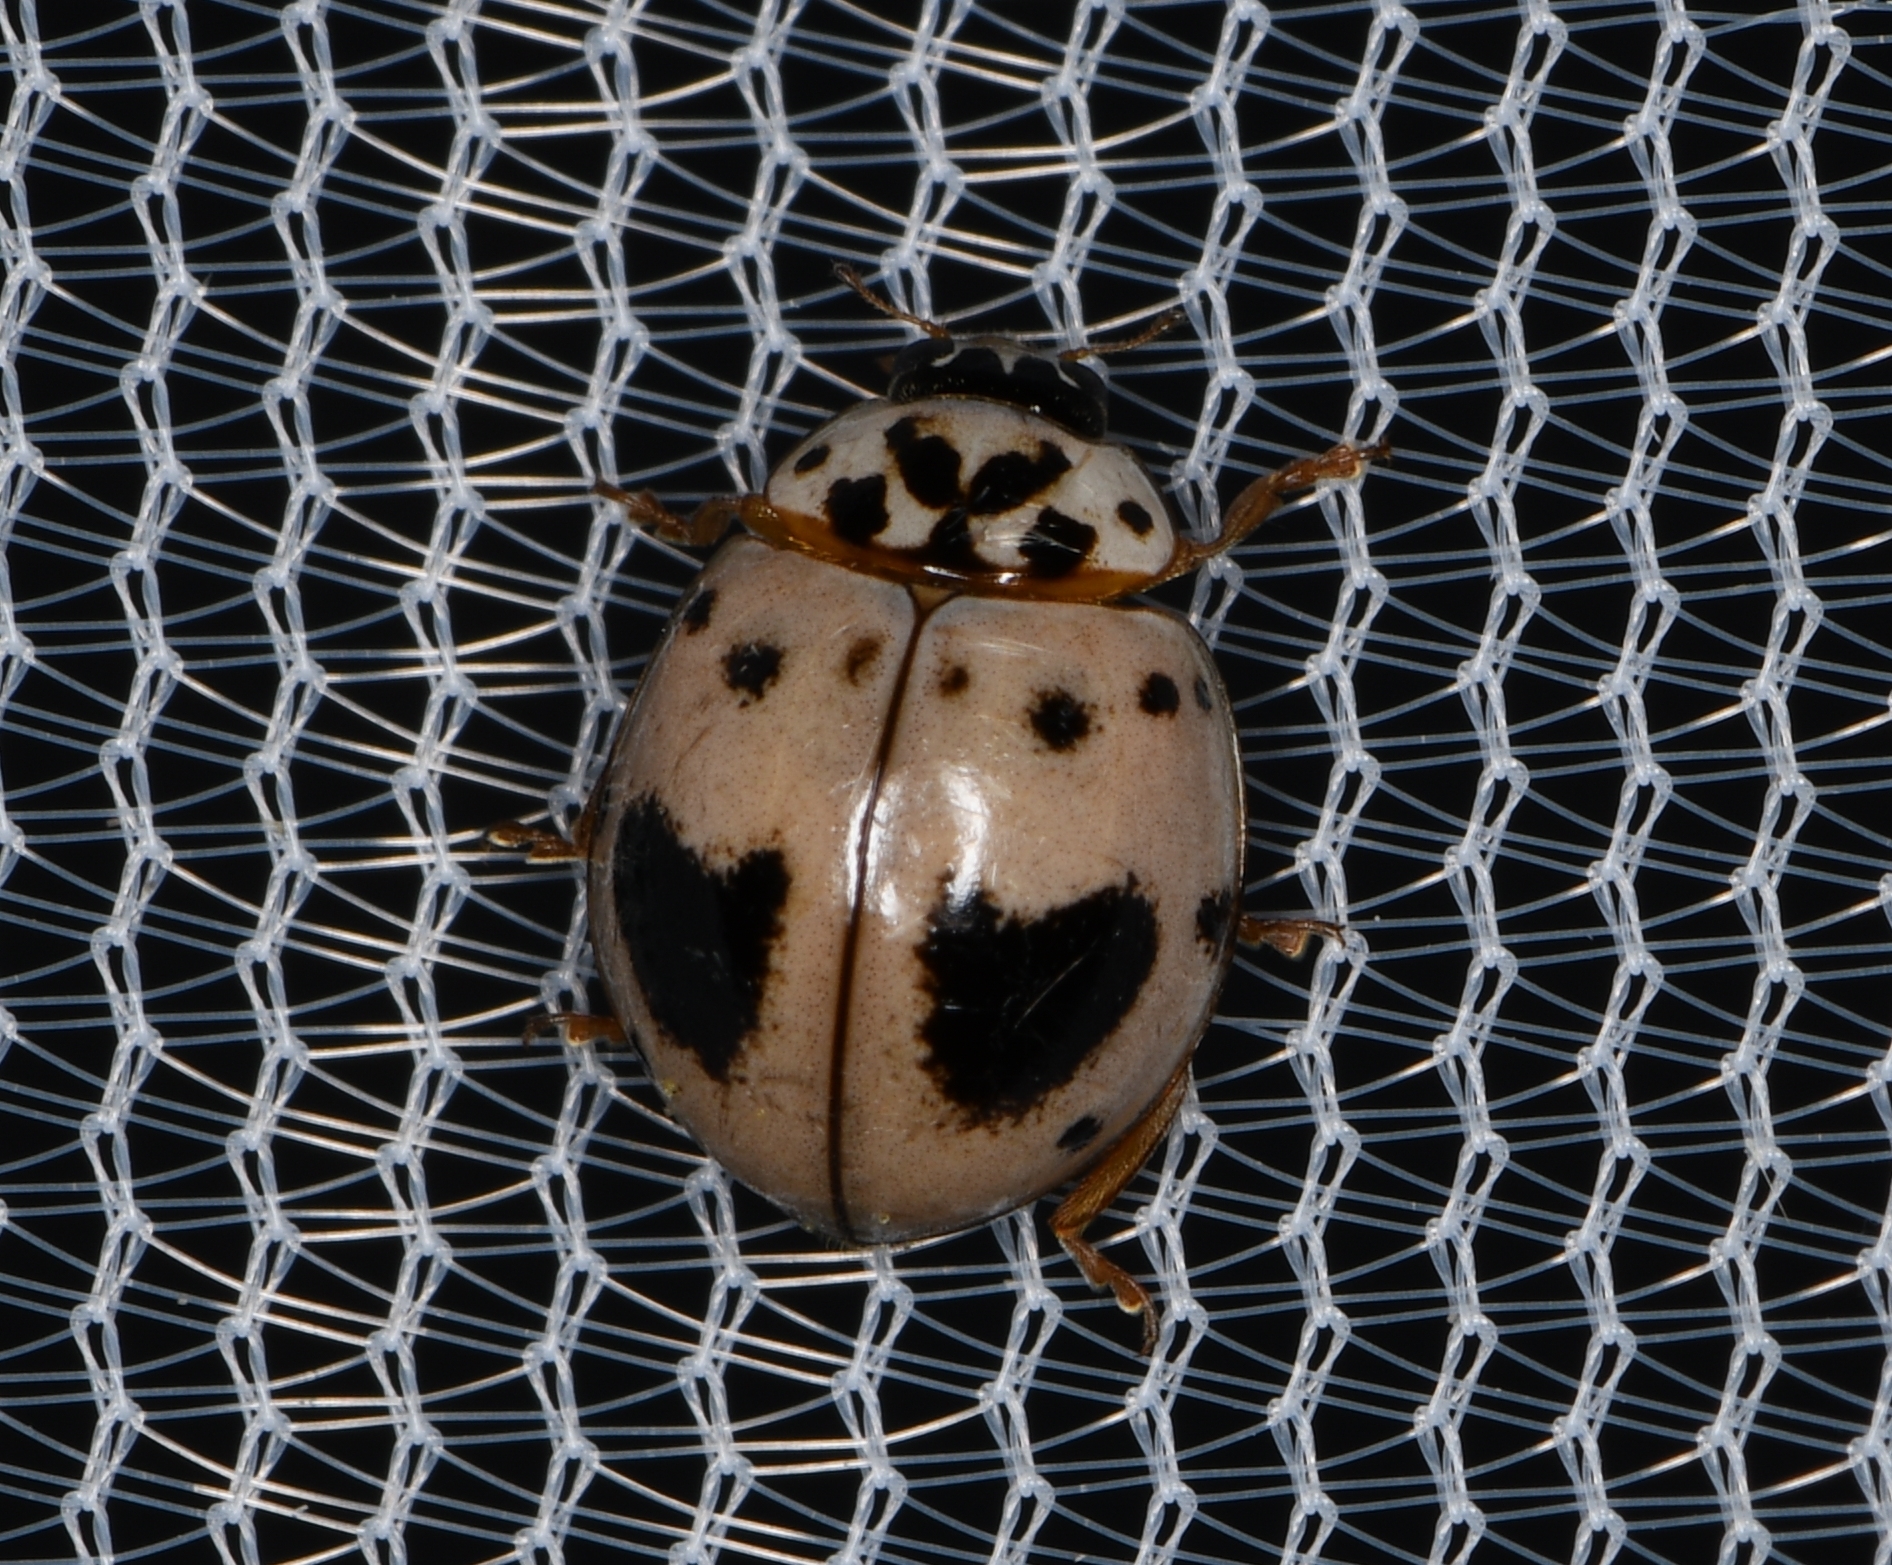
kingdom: Animalia
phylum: Arthropoda
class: Insecta
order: Coleoptera
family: Coccinellidae
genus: Olla
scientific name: Olla v-nigrum
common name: Ashy gray lady beetle
